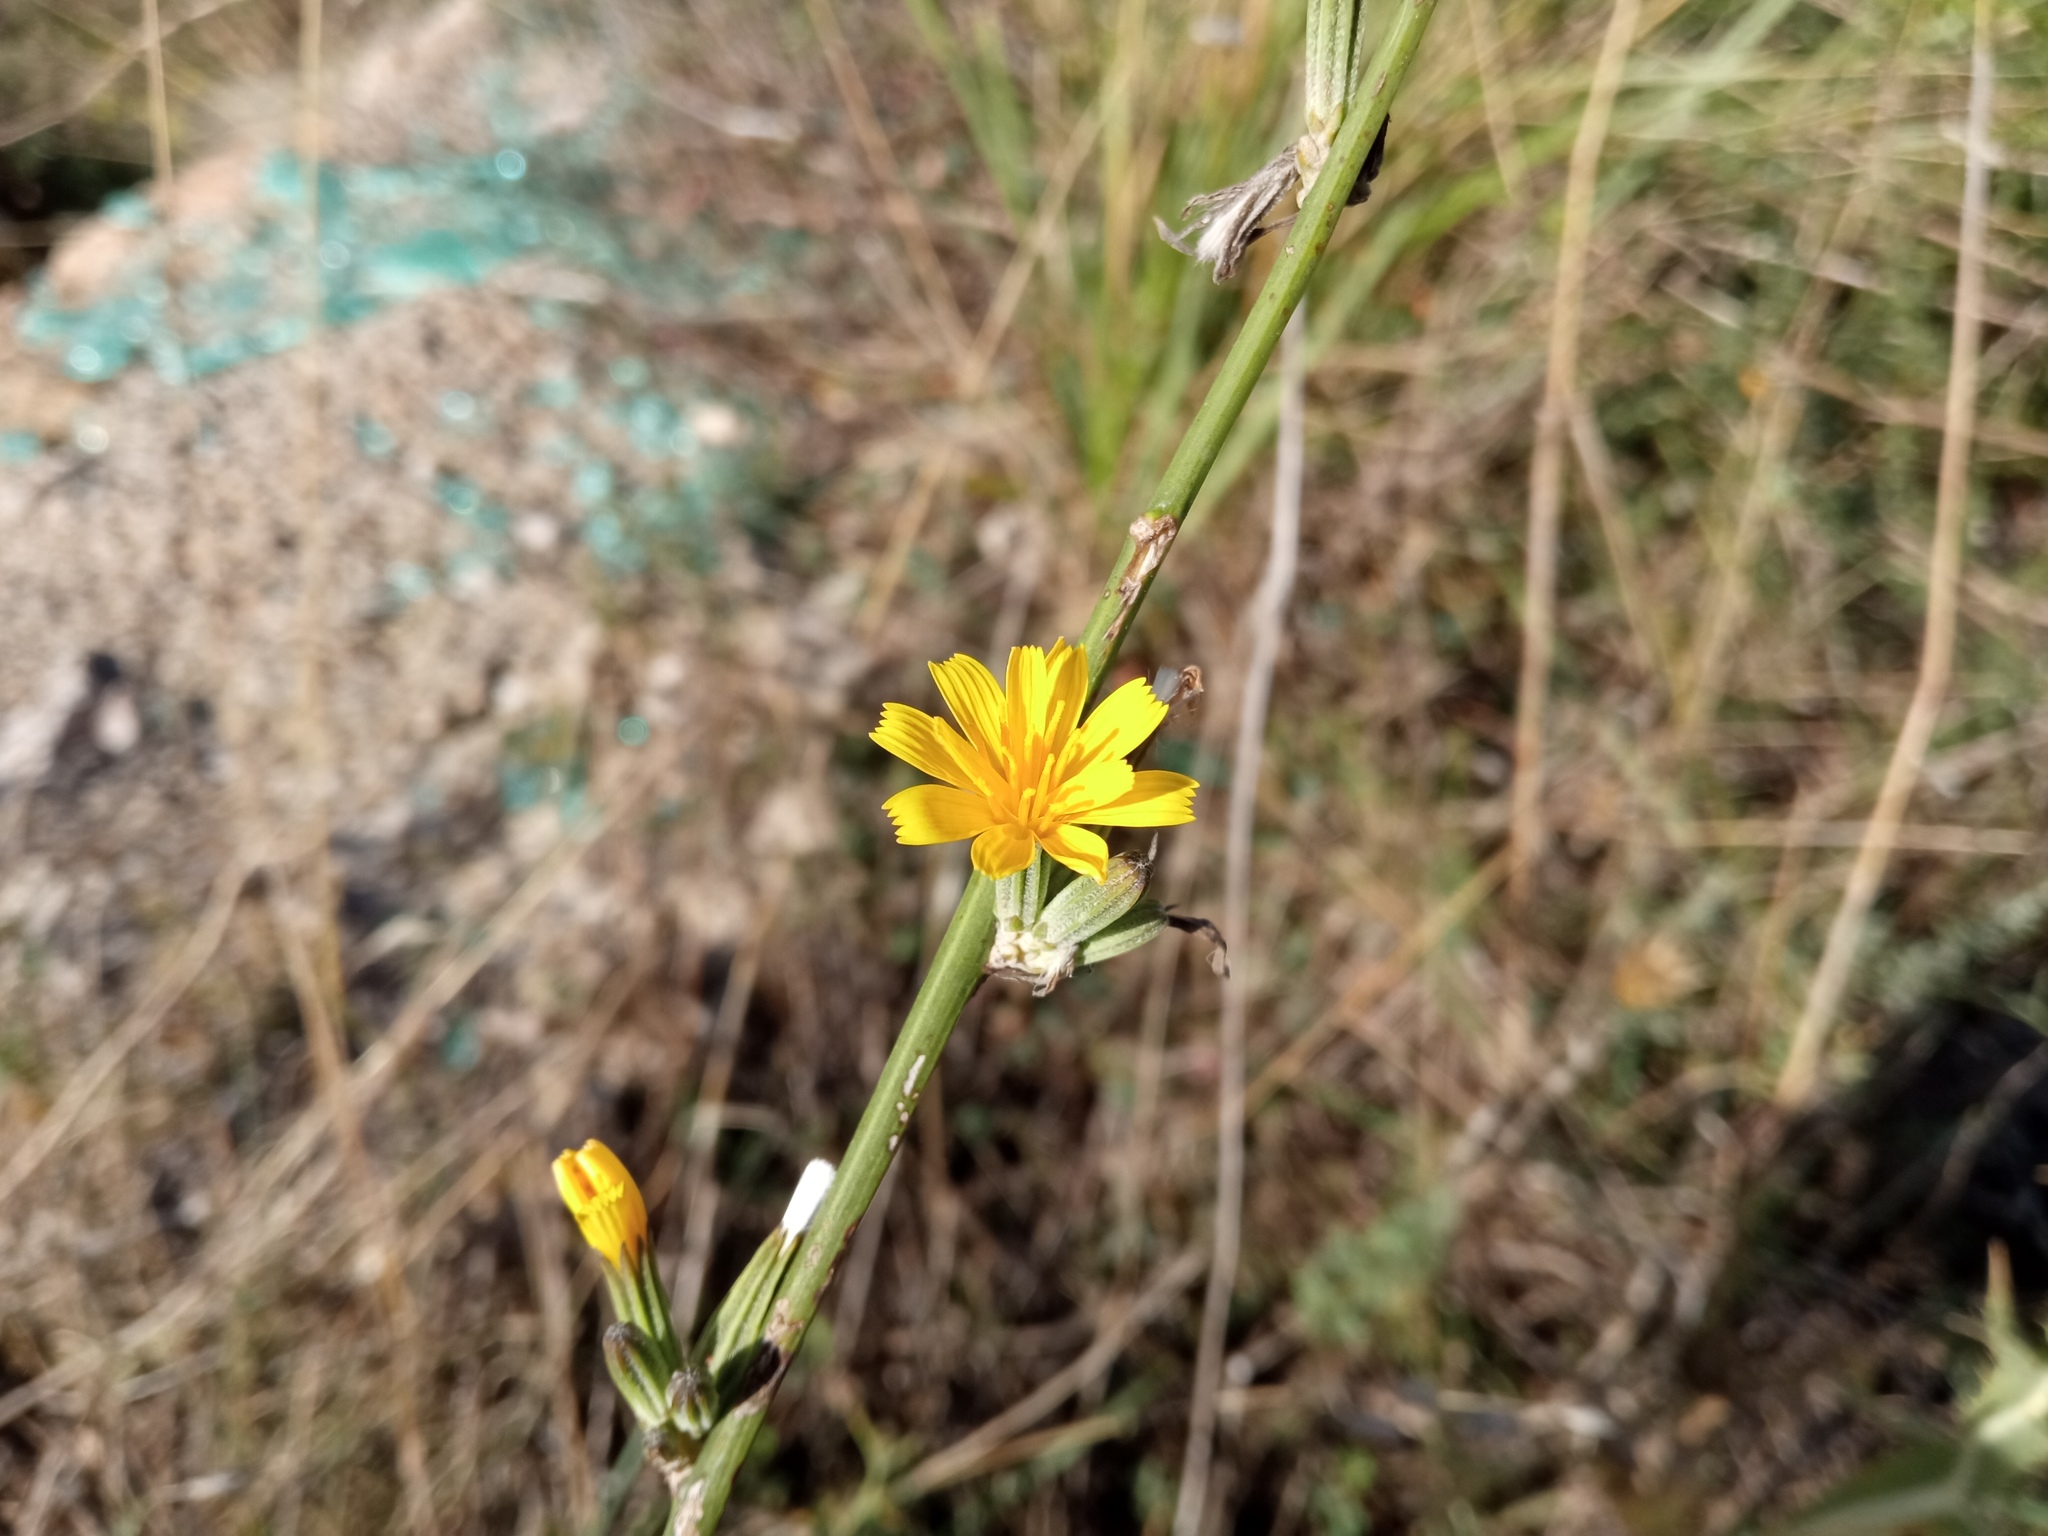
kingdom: Plantae
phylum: Tracheophyta
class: Magnoliopsida
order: Asterales
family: Asteraceae
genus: Chondrilla
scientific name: Chondrilla juncea
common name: Skeleton weed
